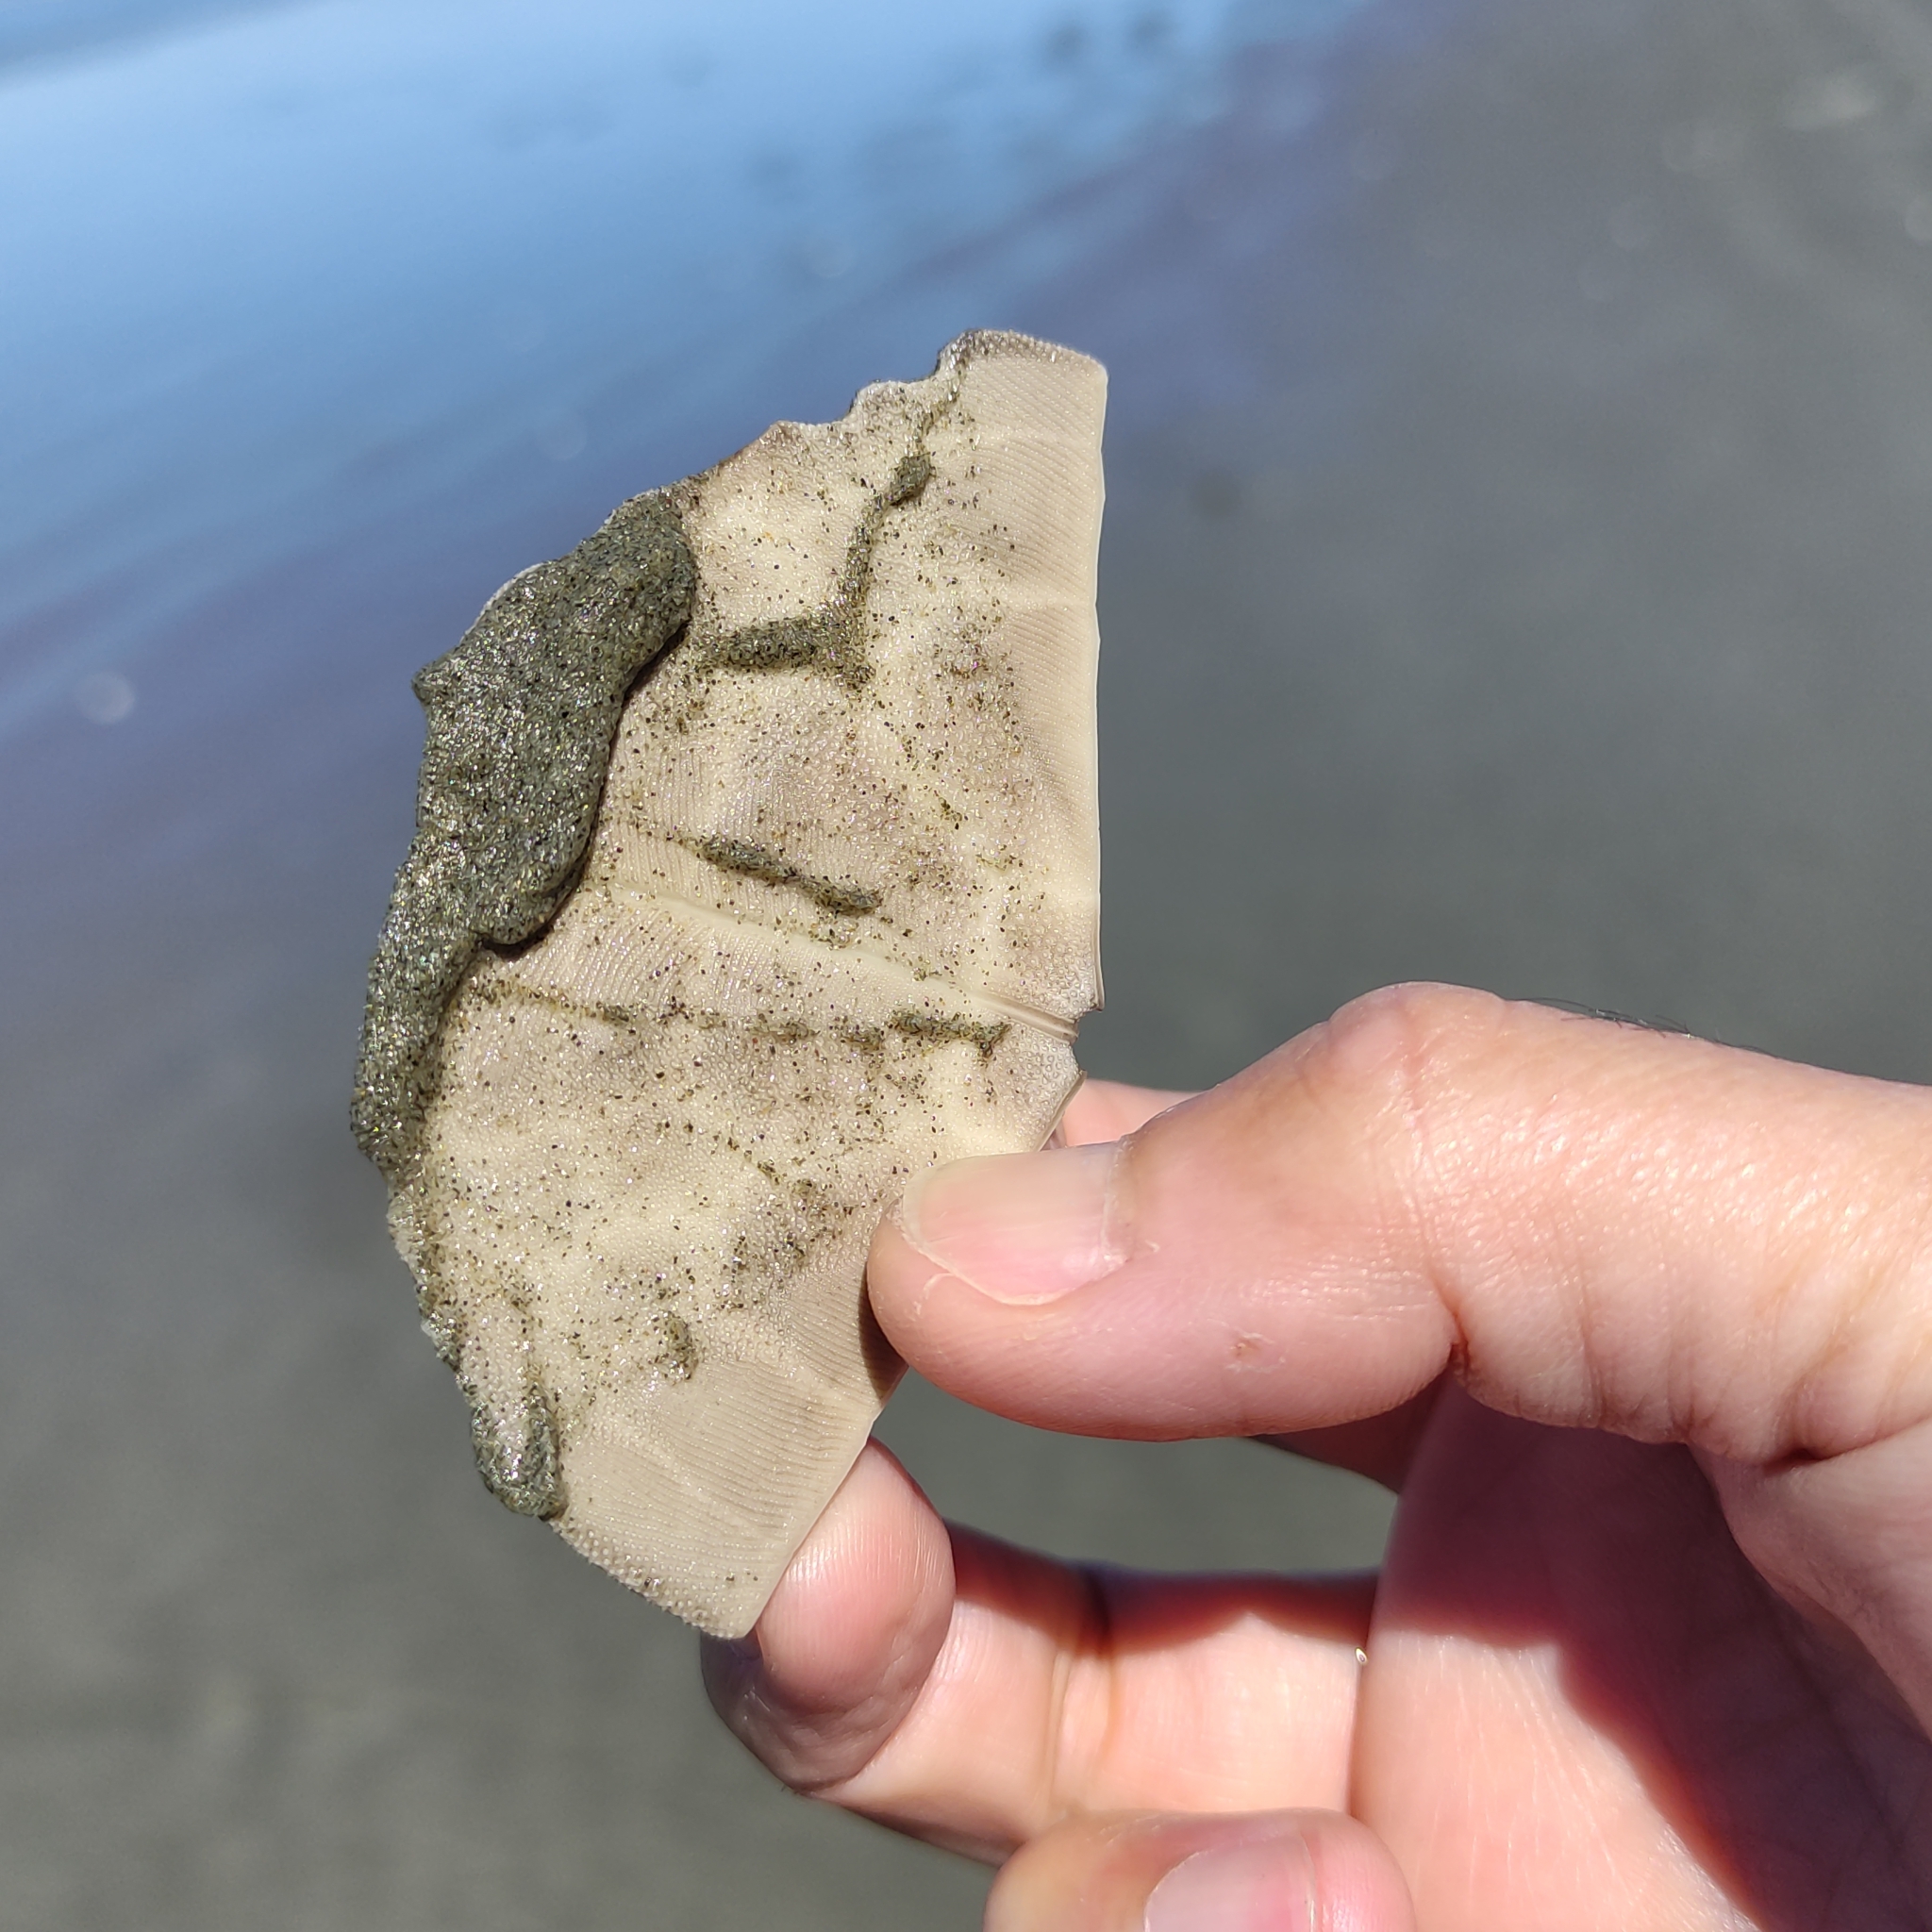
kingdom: Animalia
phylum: Echinodermata
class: Echinoidea
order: Clypeasteroida
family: Clypeasteridae
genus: Fellaster
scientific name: Fellaster zelandiae
